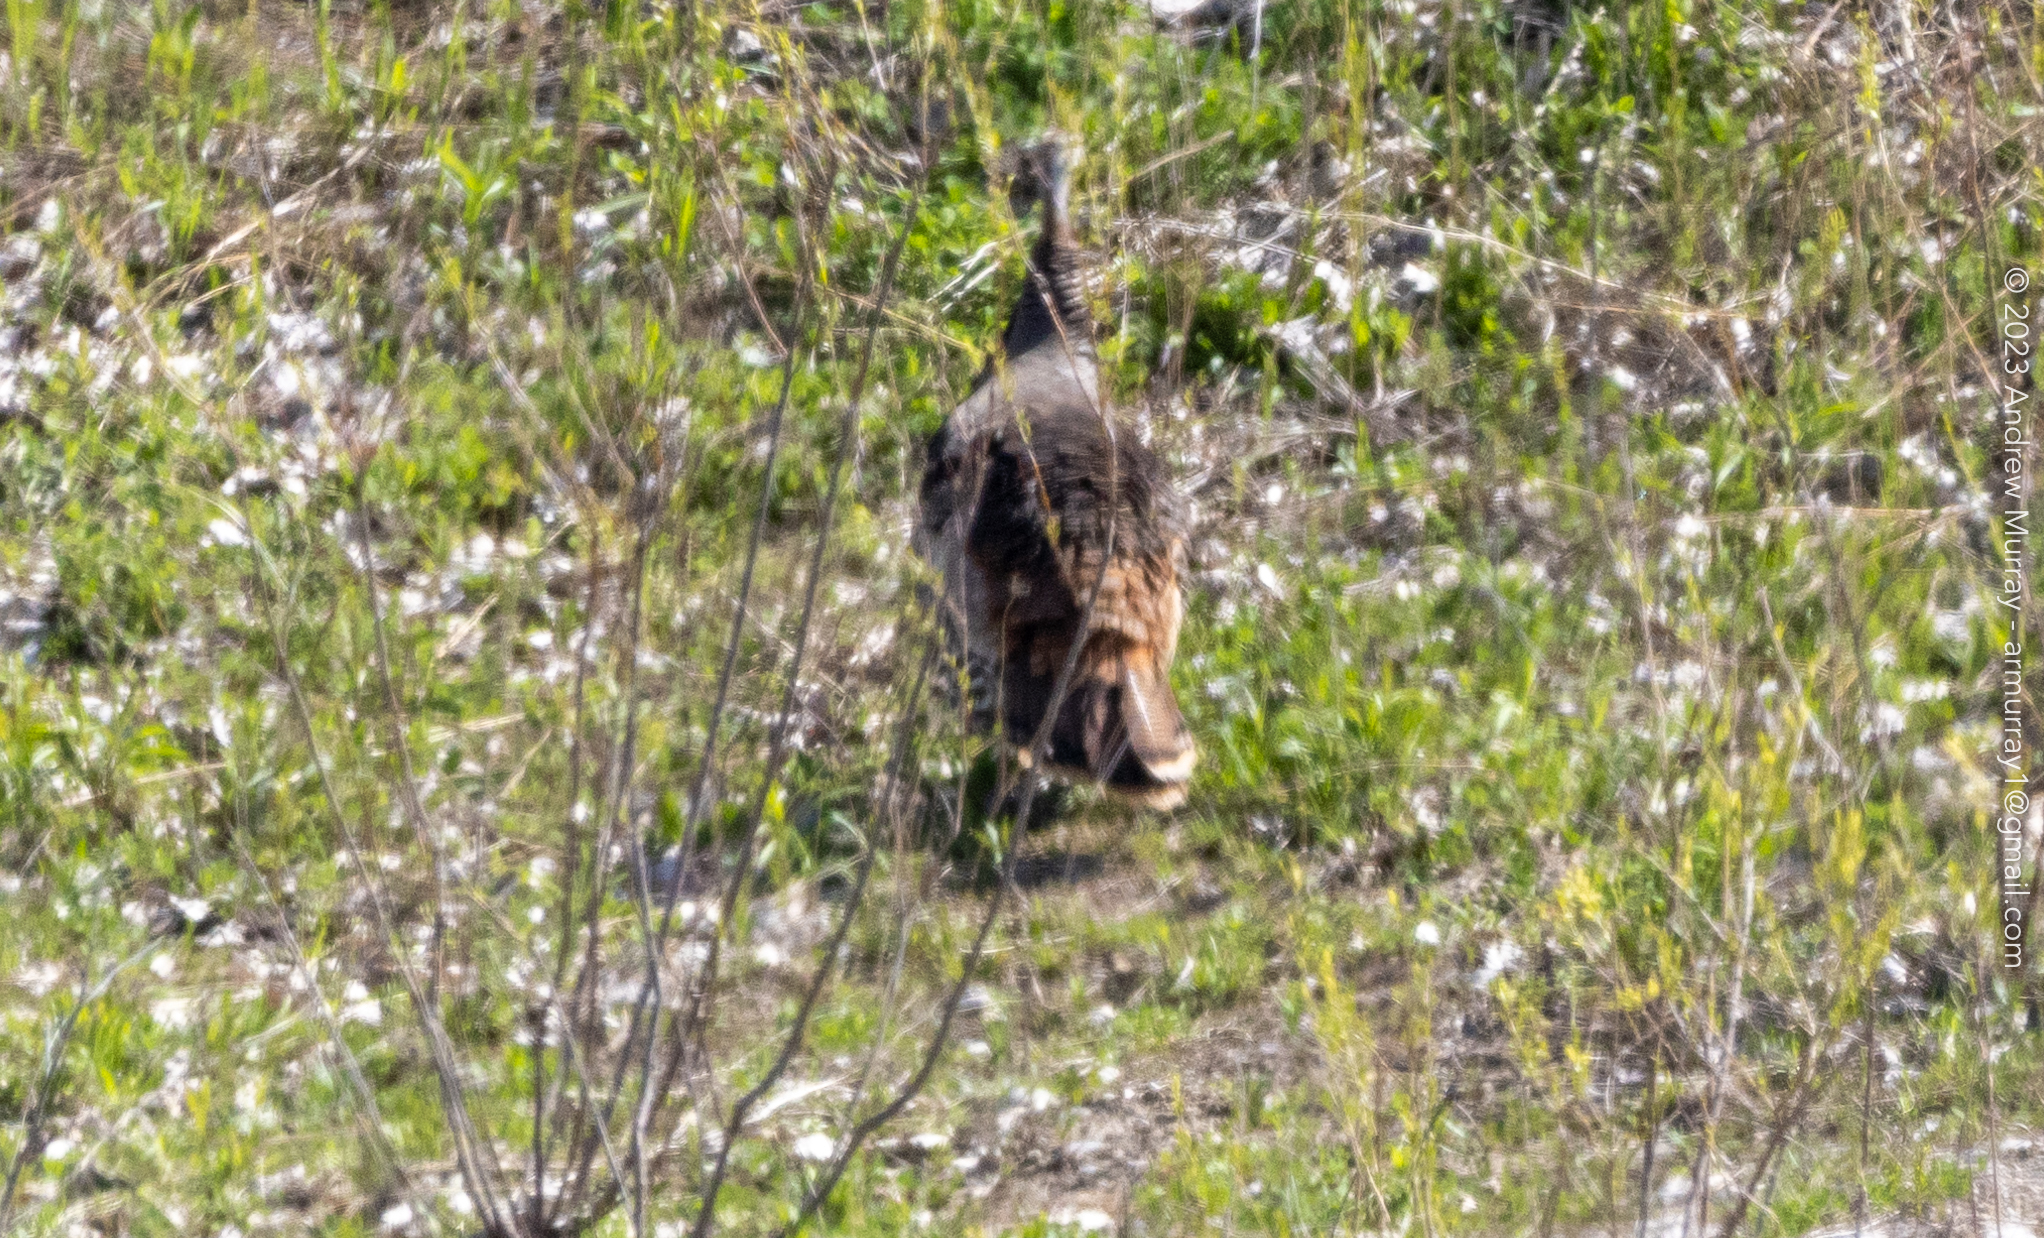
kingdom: Animalia
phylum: Chordata
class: Aves
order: Galliformes
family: Phasianidae
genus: Meleagris
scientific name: Meleagris gallopavo
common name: Wild turkey
